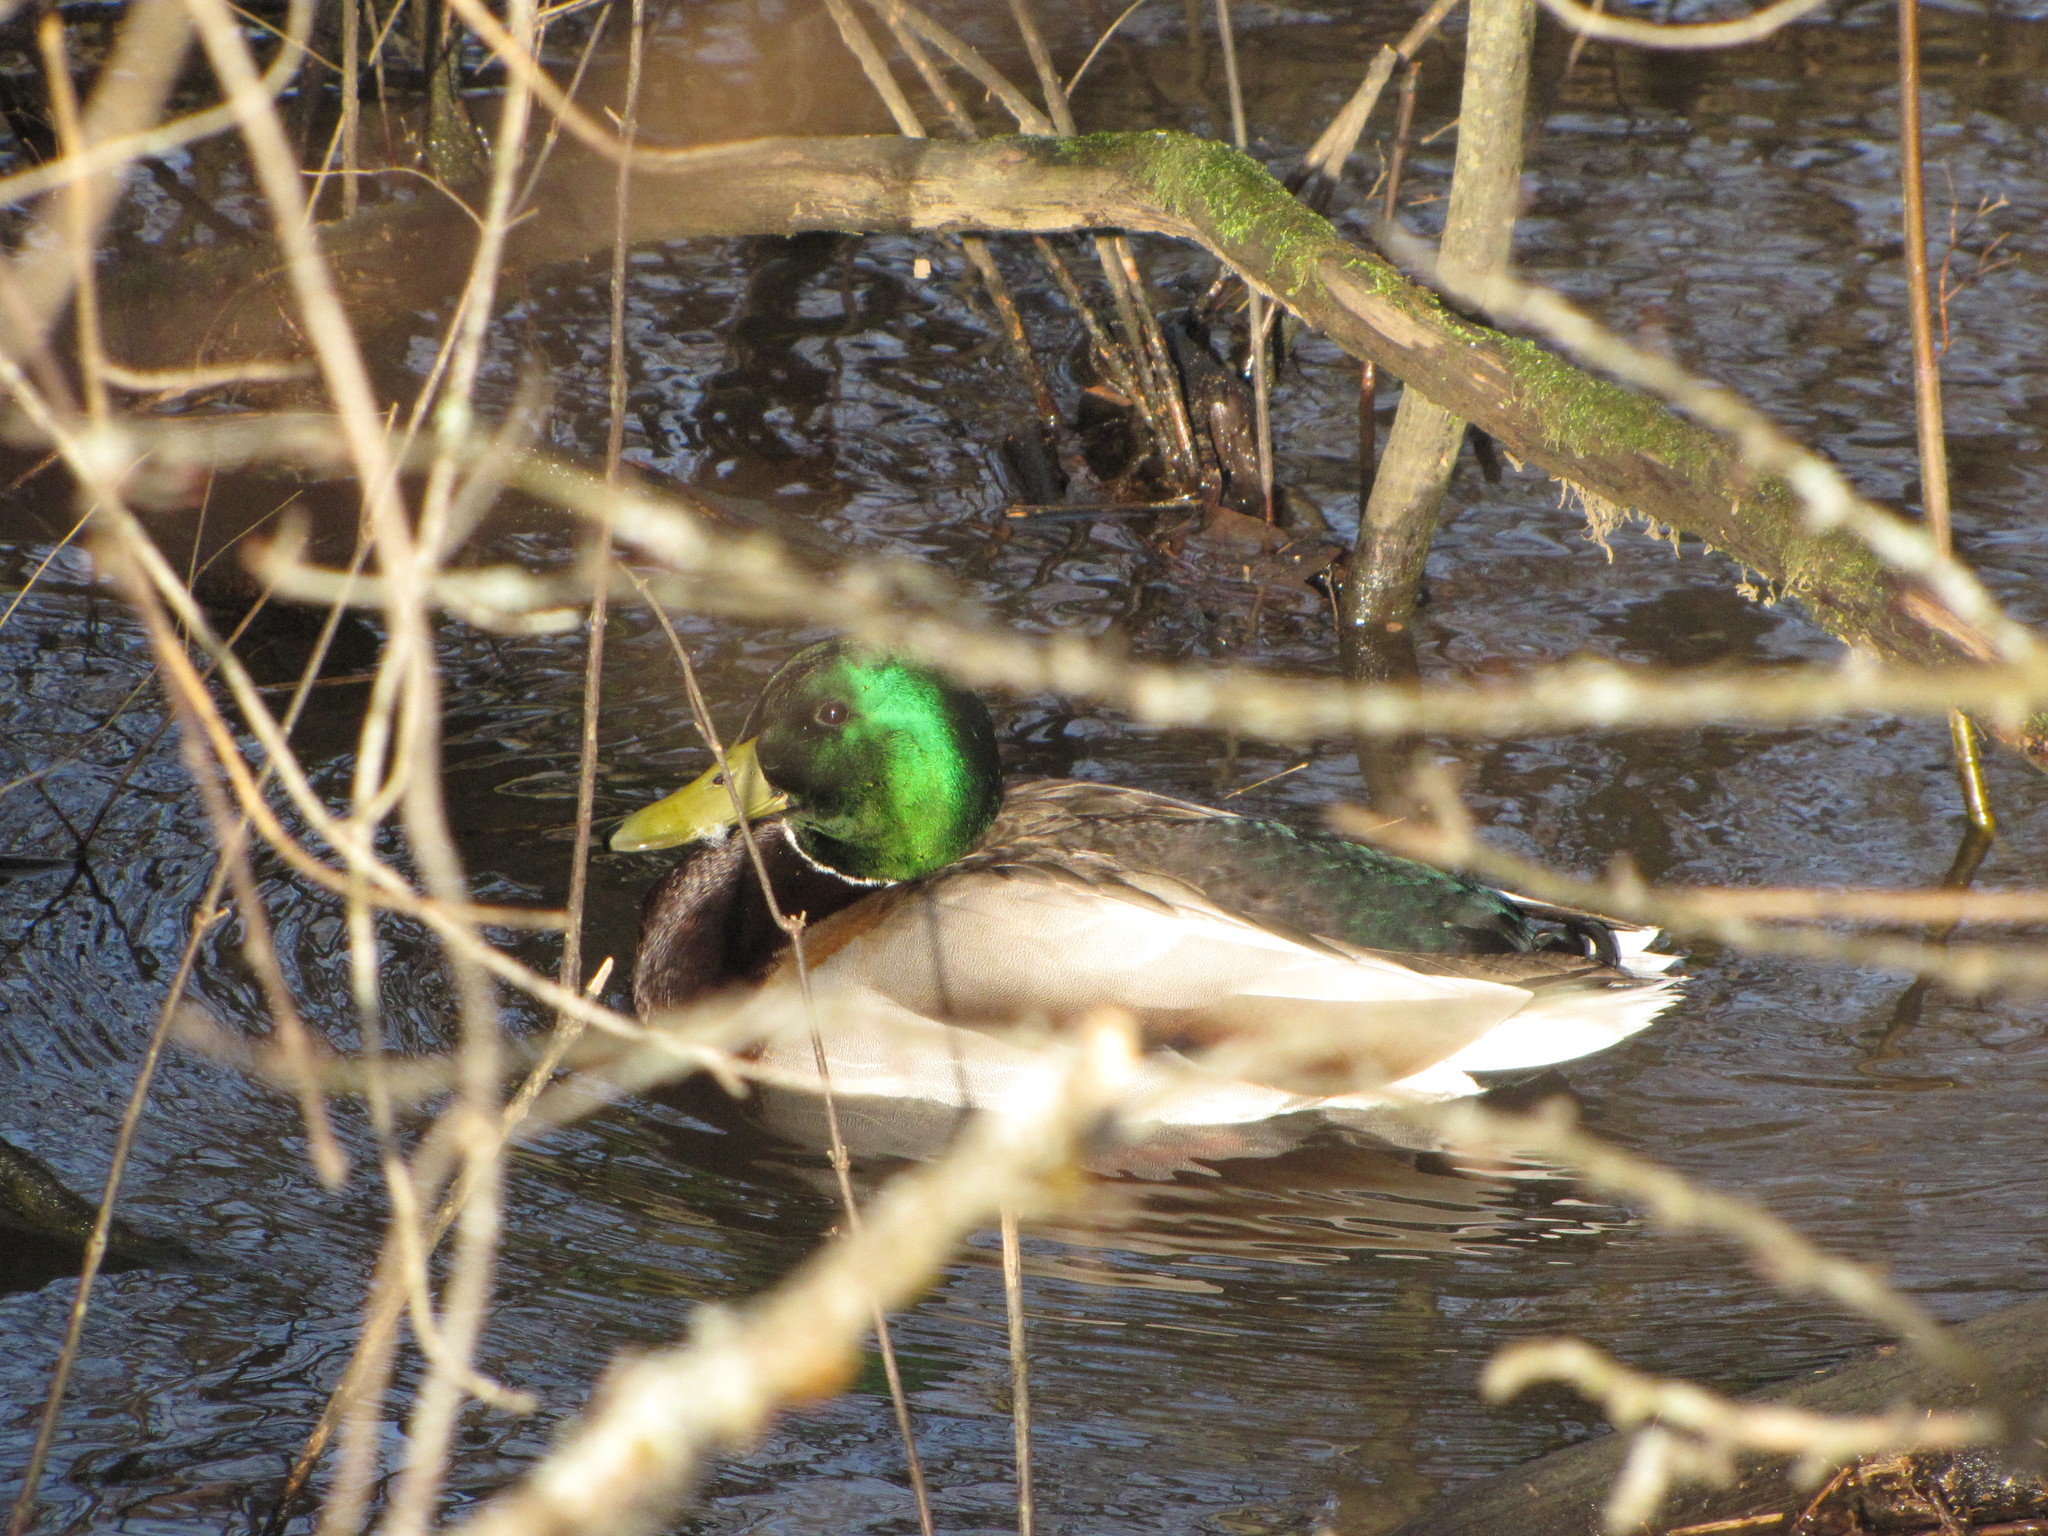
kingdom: Animalia
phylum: Chordata
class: Aves
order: Anseriformes
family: Anatidae
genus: Anas
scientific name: Anas platyrhynchos
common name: Mallard
